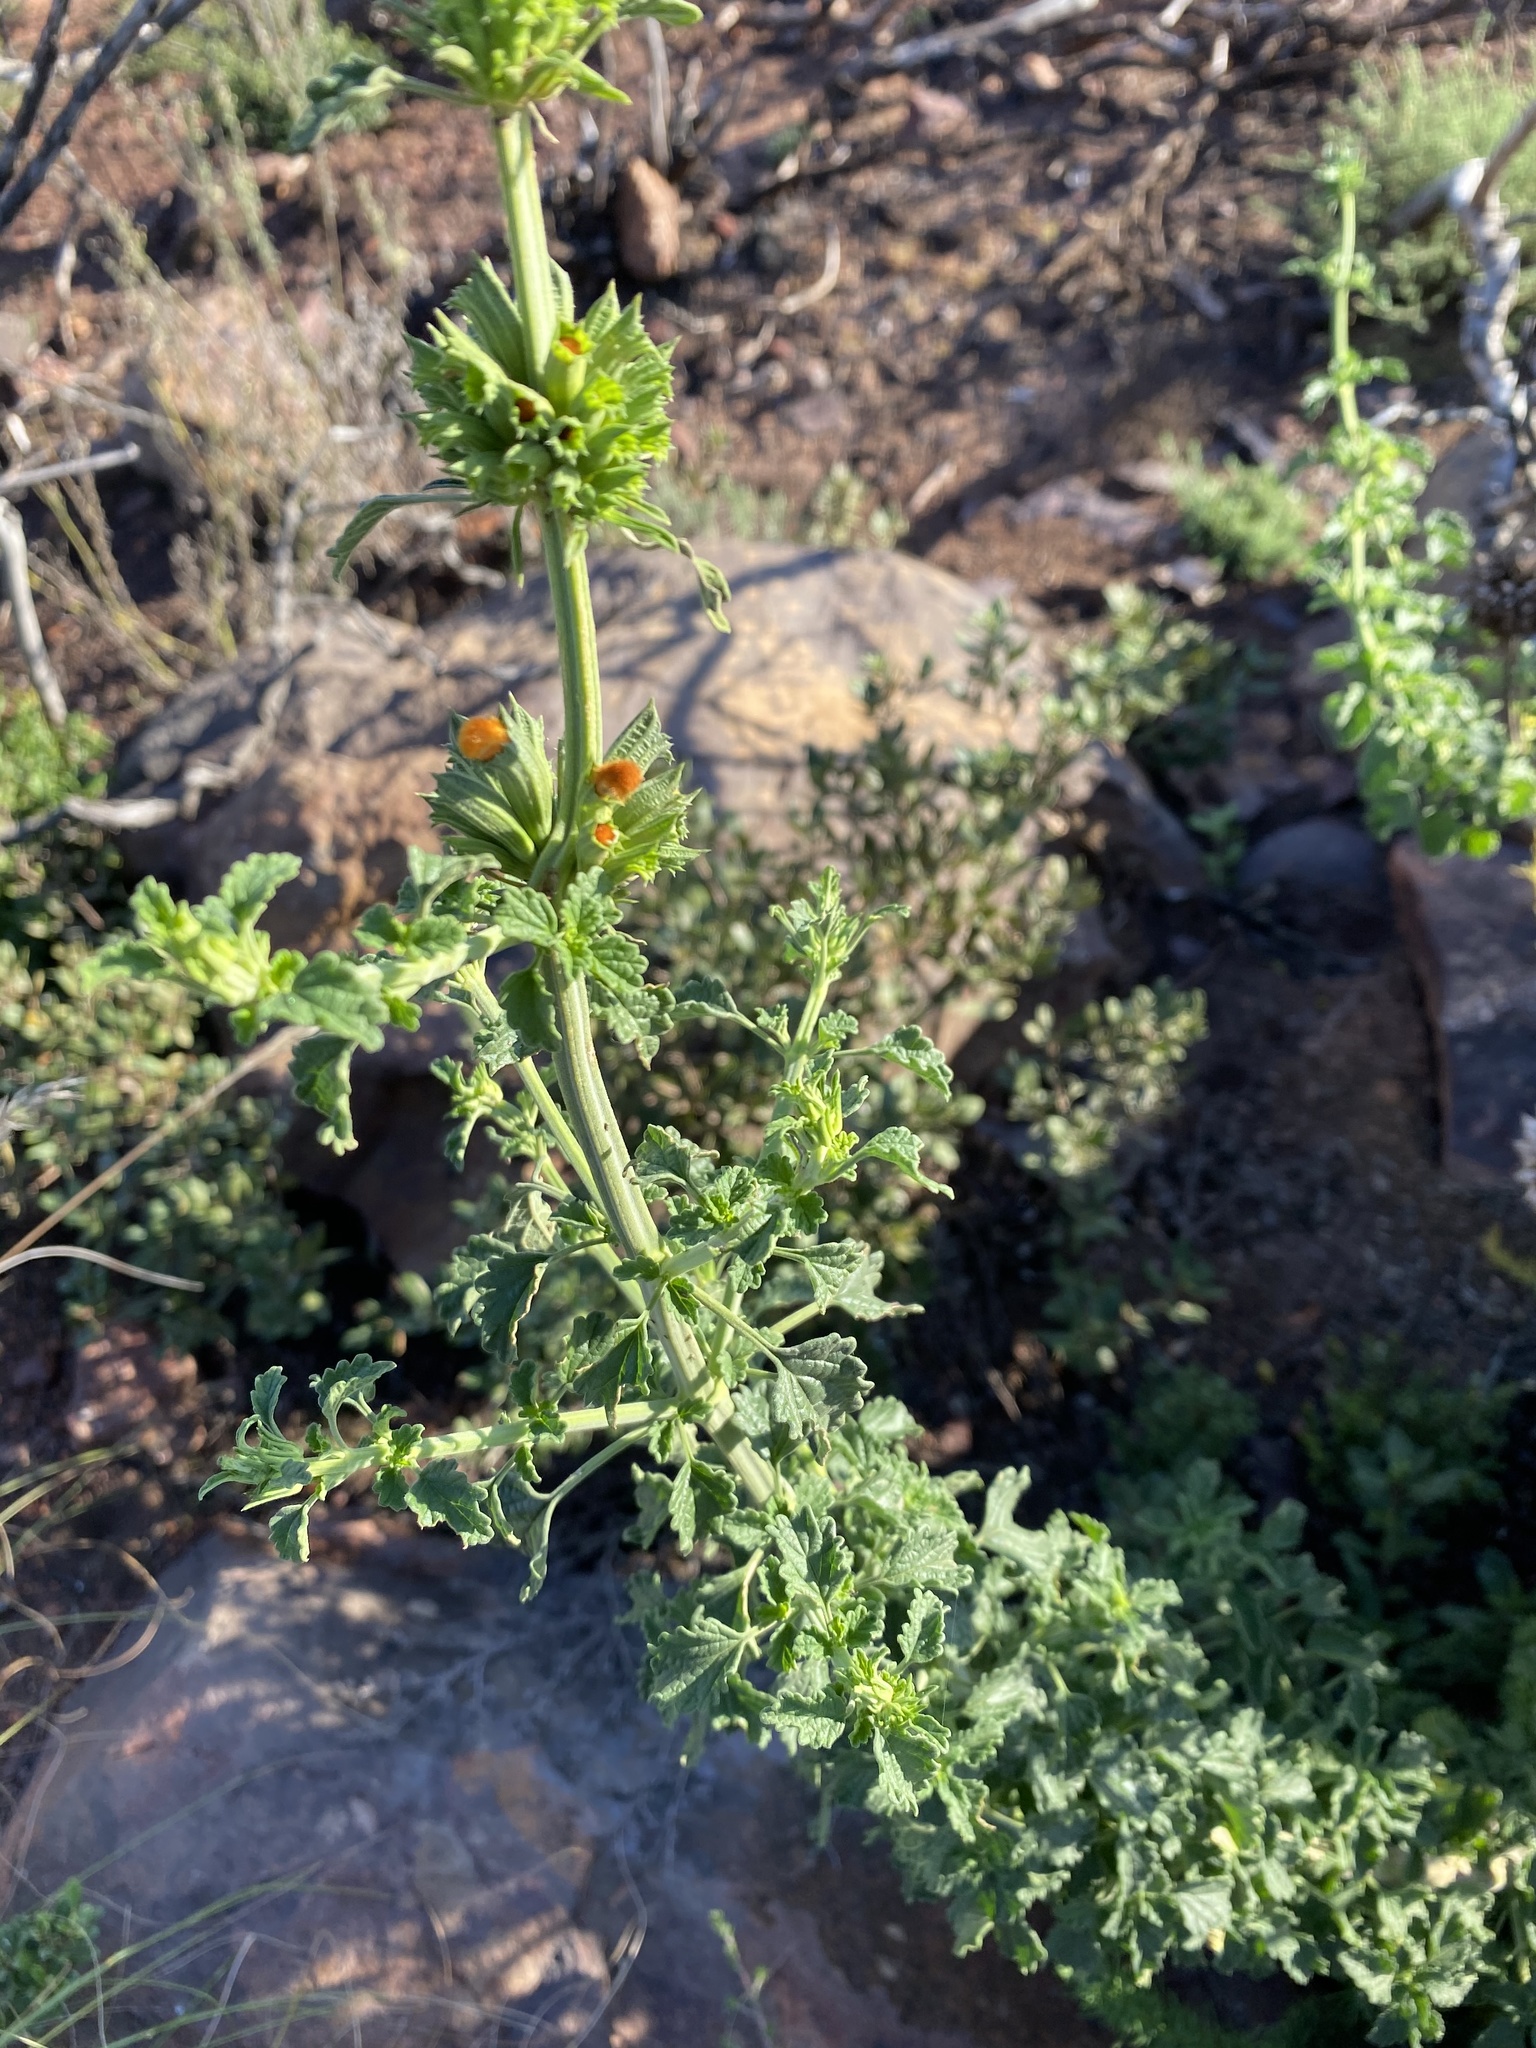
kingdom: Plantae
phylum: Tracheophyta
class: Magnoliopsida
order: Lamiales
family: Lamiaceae
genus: Leonotis
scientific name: Leonotis ocymifolia
